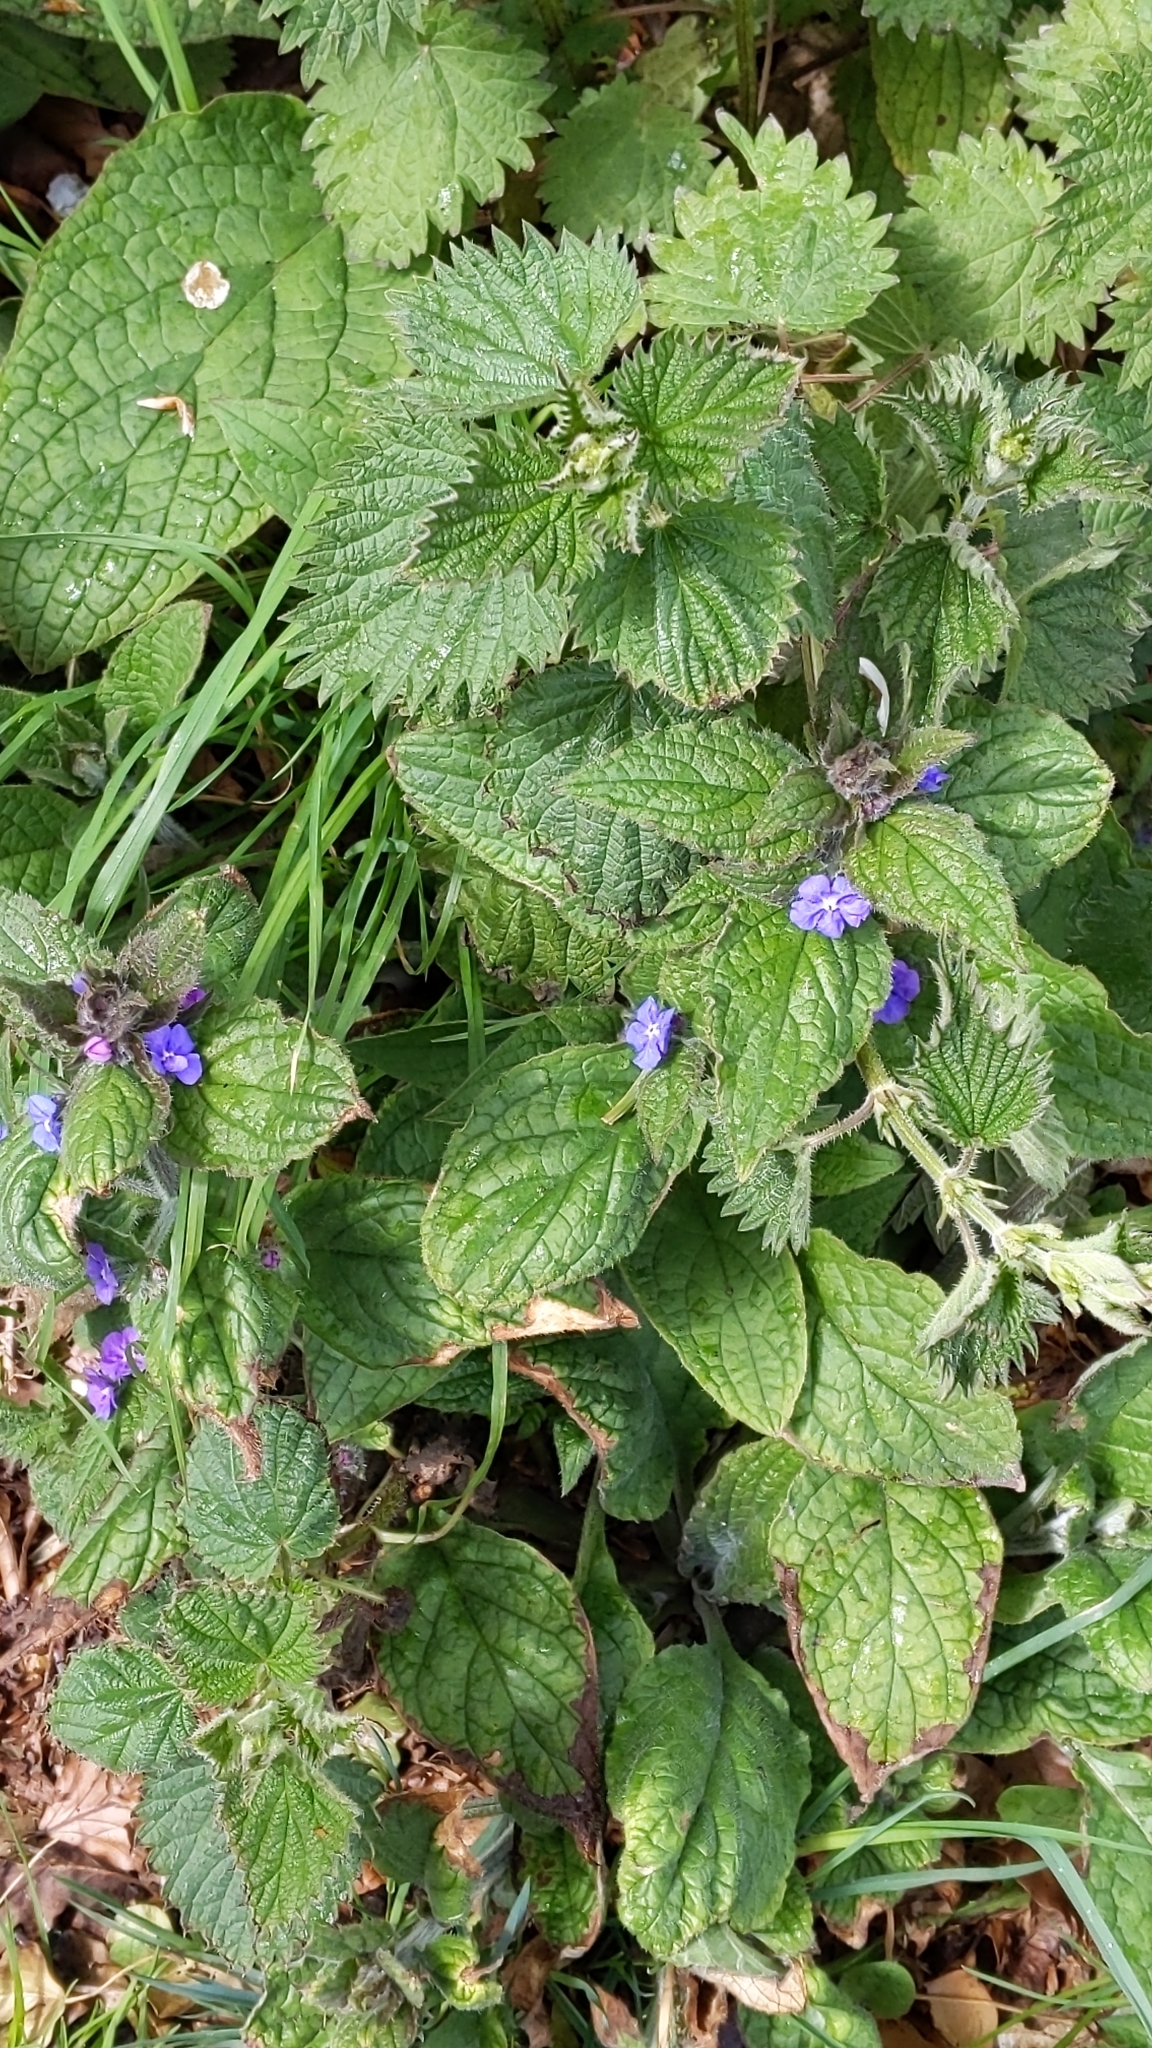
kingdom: Plantae
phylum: Tracheophyta
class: Magnoliopsida
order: Boraginales
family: Boraginaceae
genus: Pentaglottis
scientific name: Pentaglottis sempervirens
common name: Green alkanet
